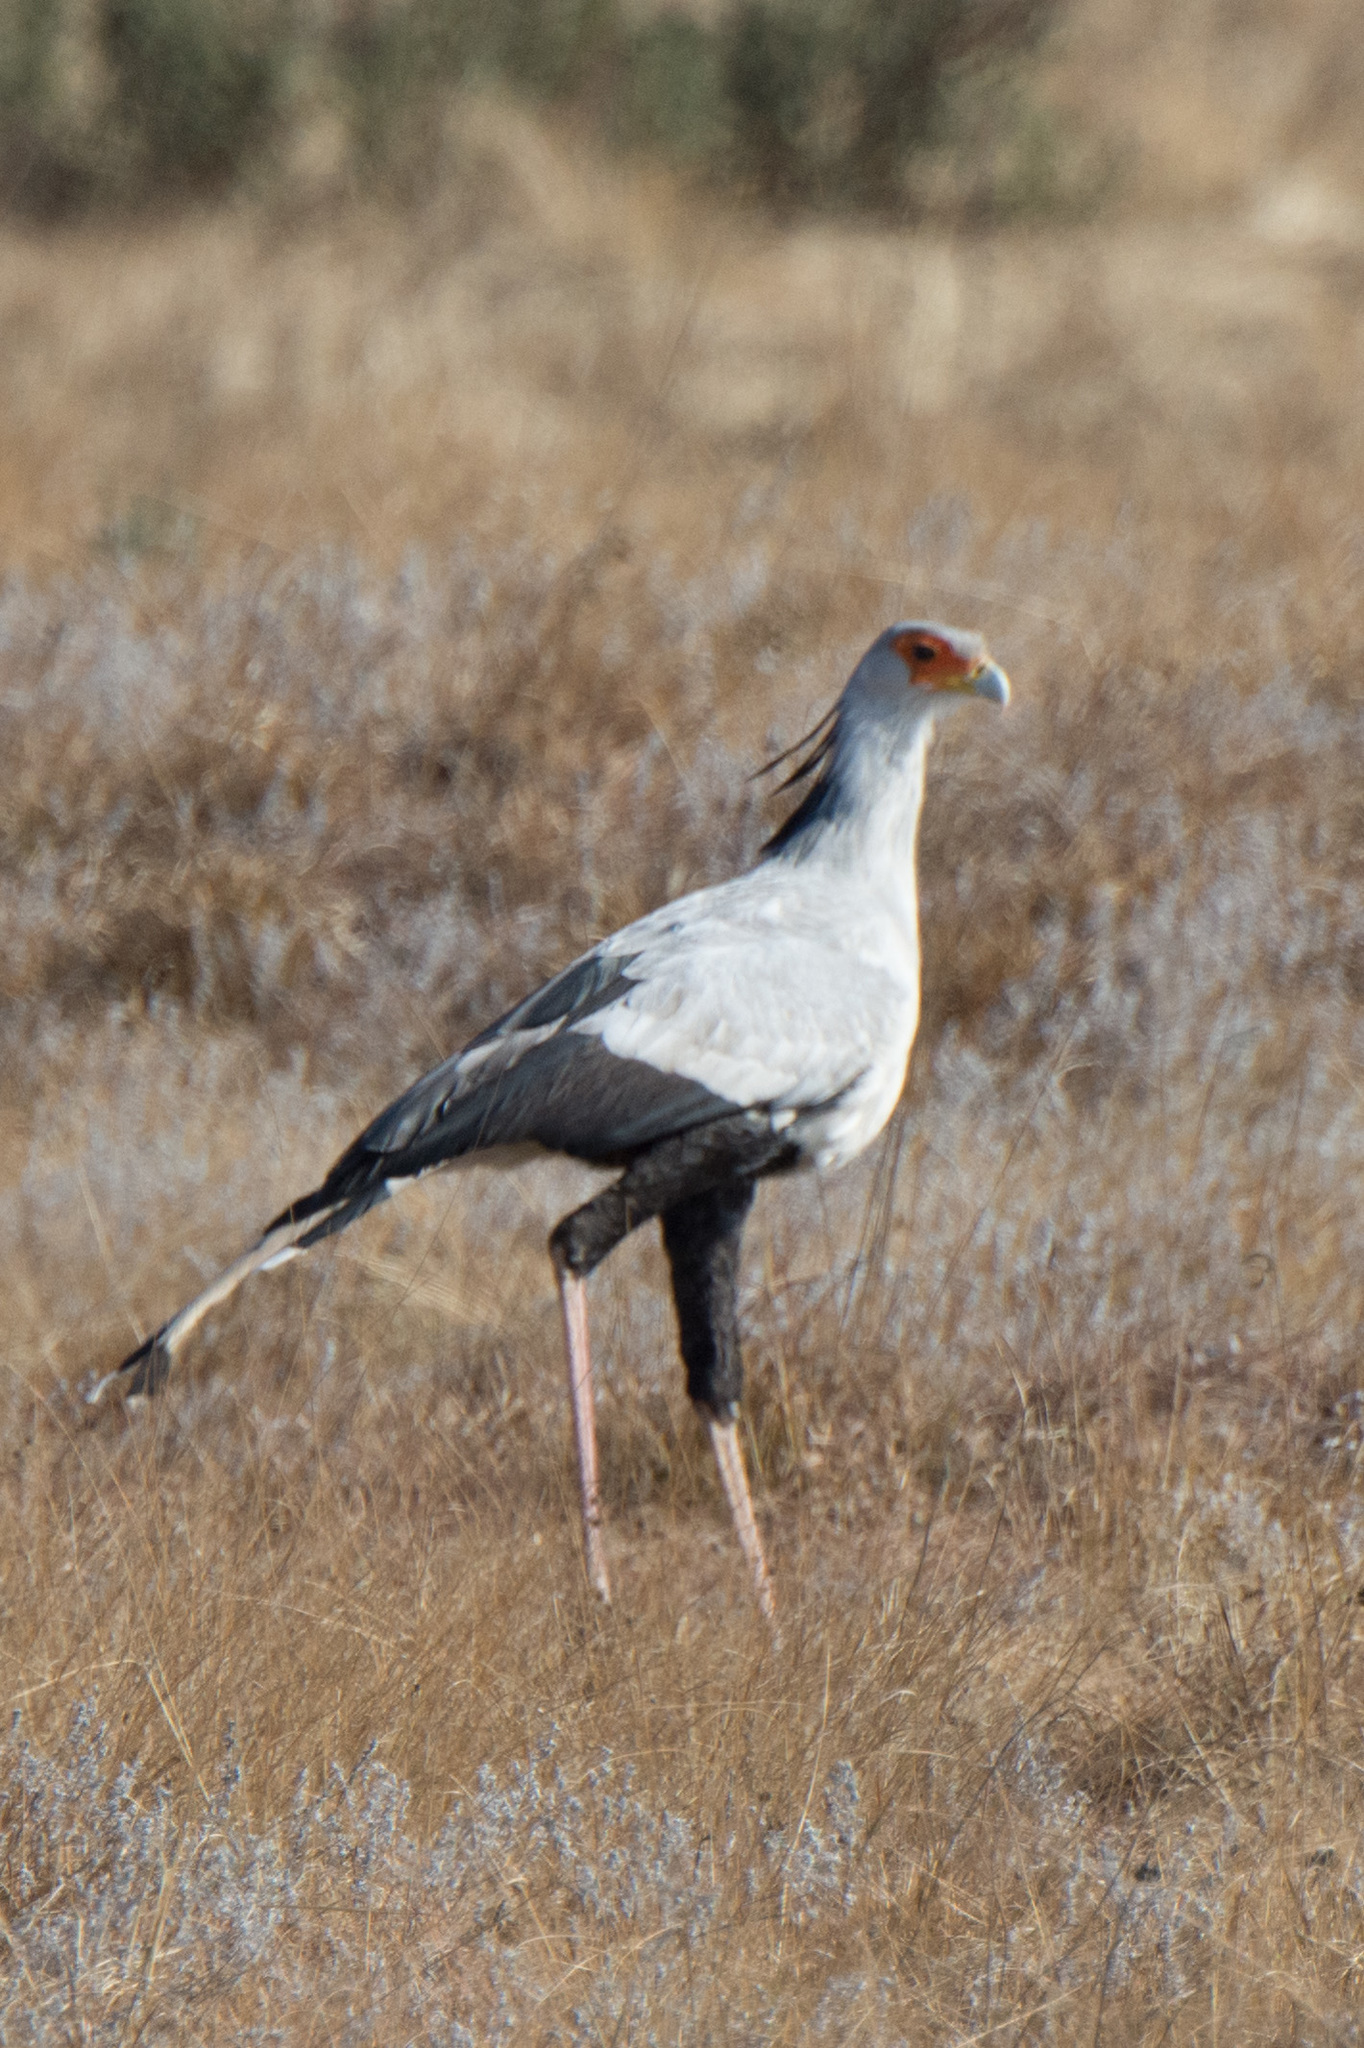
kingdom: Animalia
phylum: Chordata
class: Aves
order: Accipitriformes
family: Sagittariidae
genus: Sagittarius
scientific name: Sagittarius serpentarius
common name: Secretarybird
